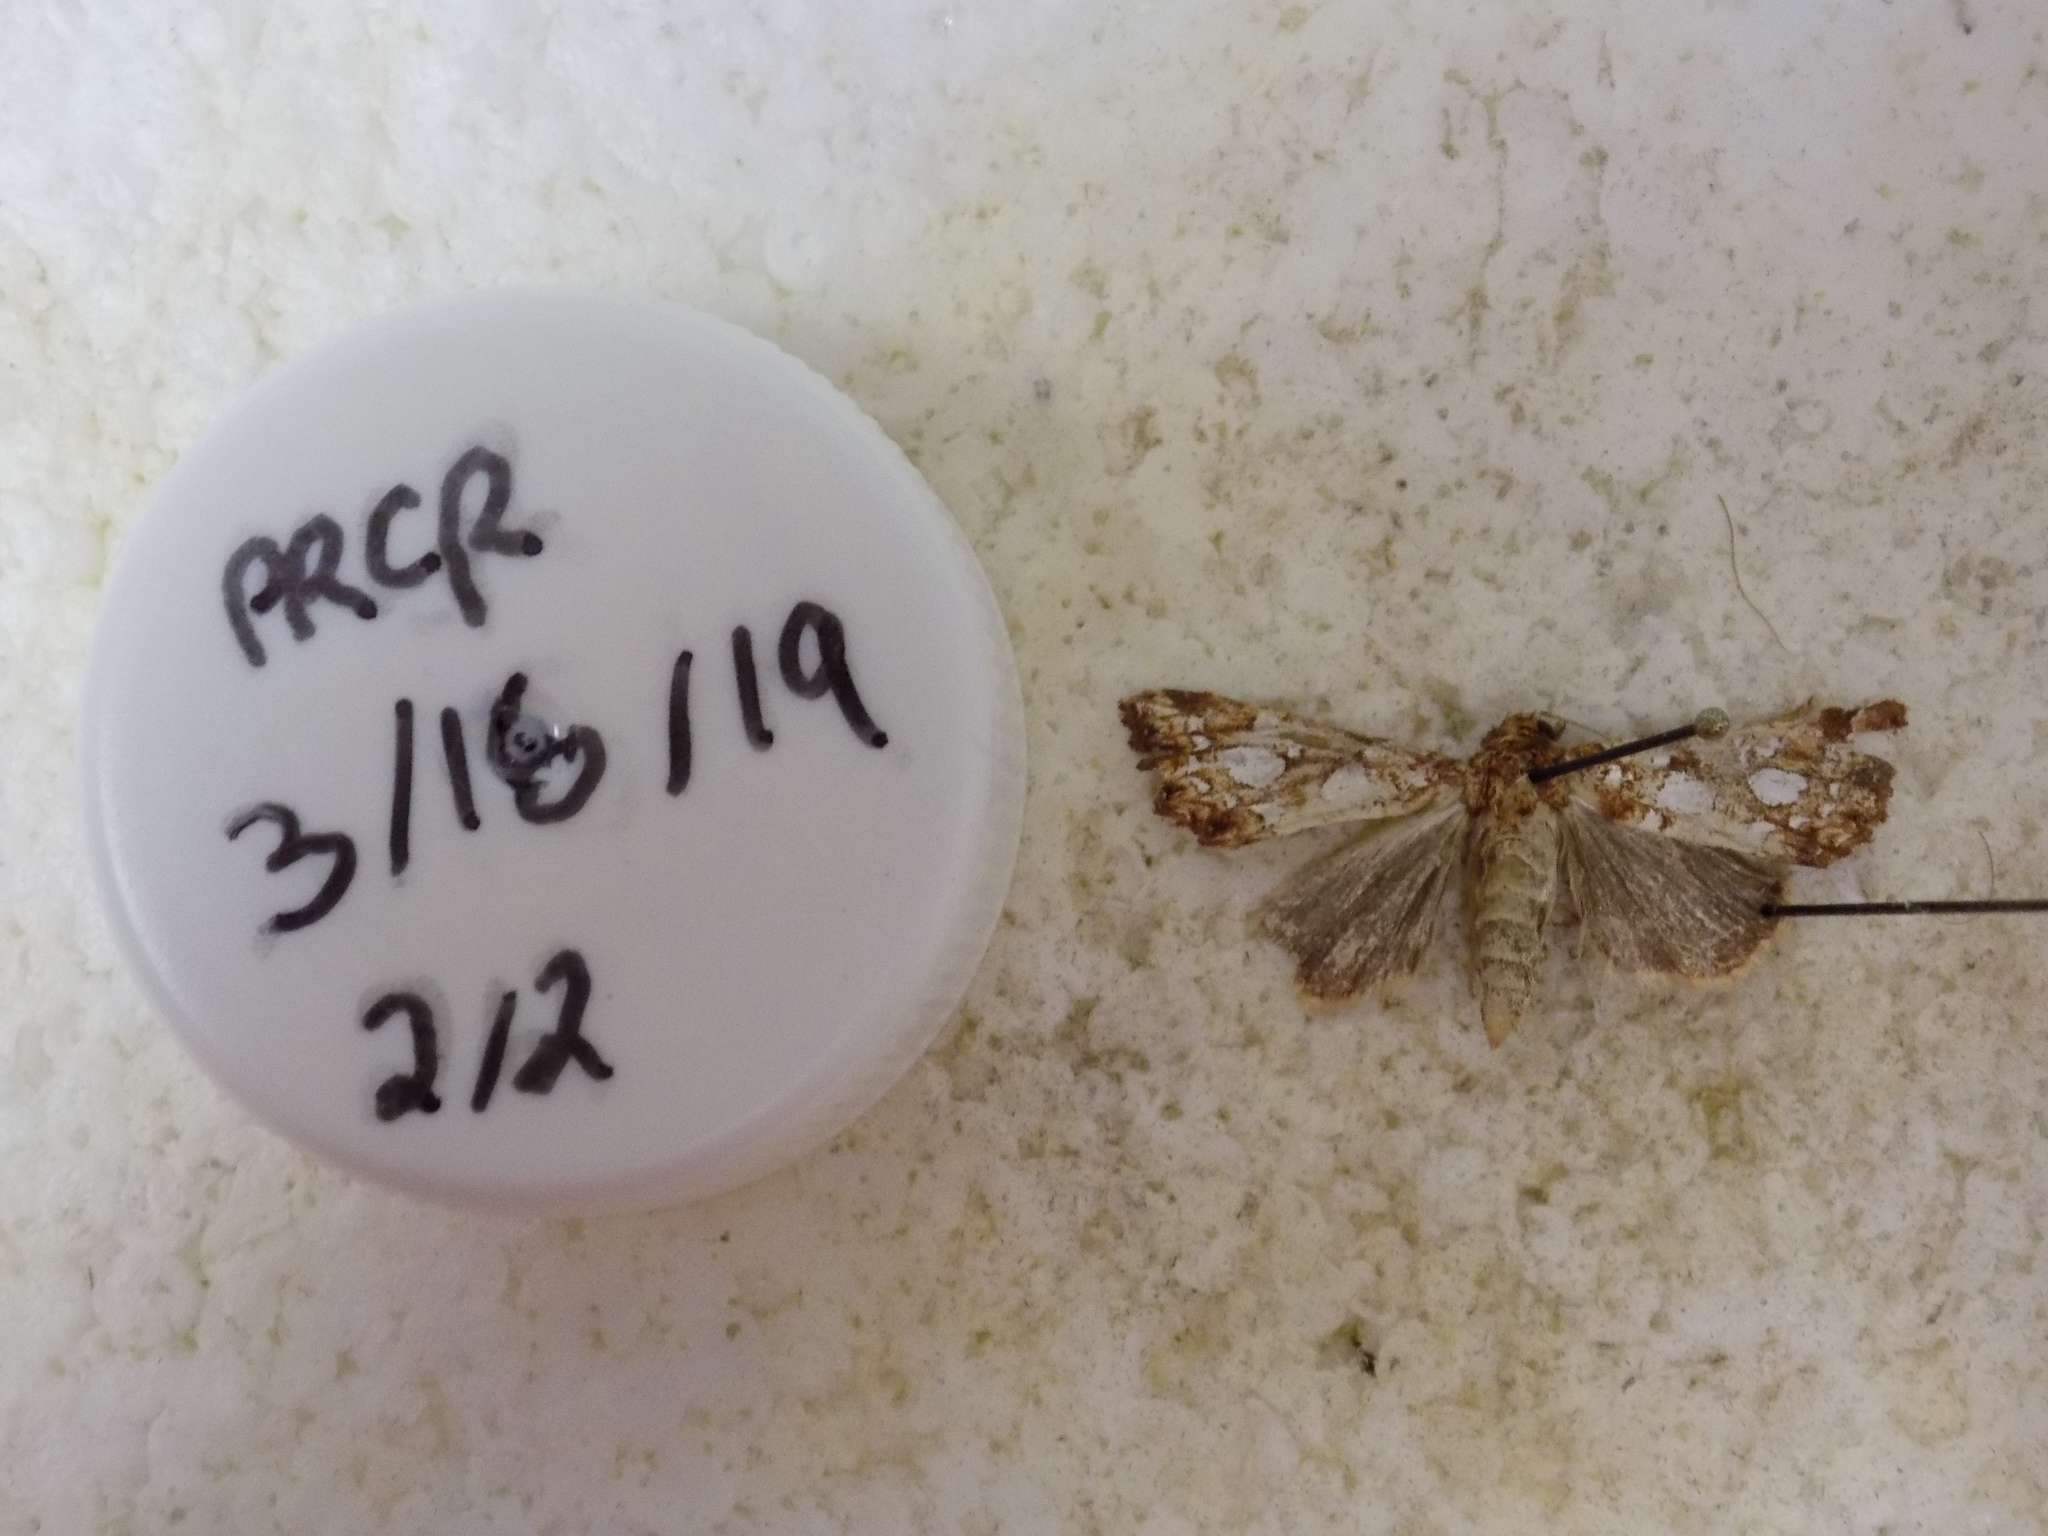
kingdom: Animalia
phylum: Arthropoda
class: Insecta
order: Lepidoptera
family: Noctuidae
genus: Callopistria
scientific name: Callopistria cordata
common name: Silver-spotted fern moth
